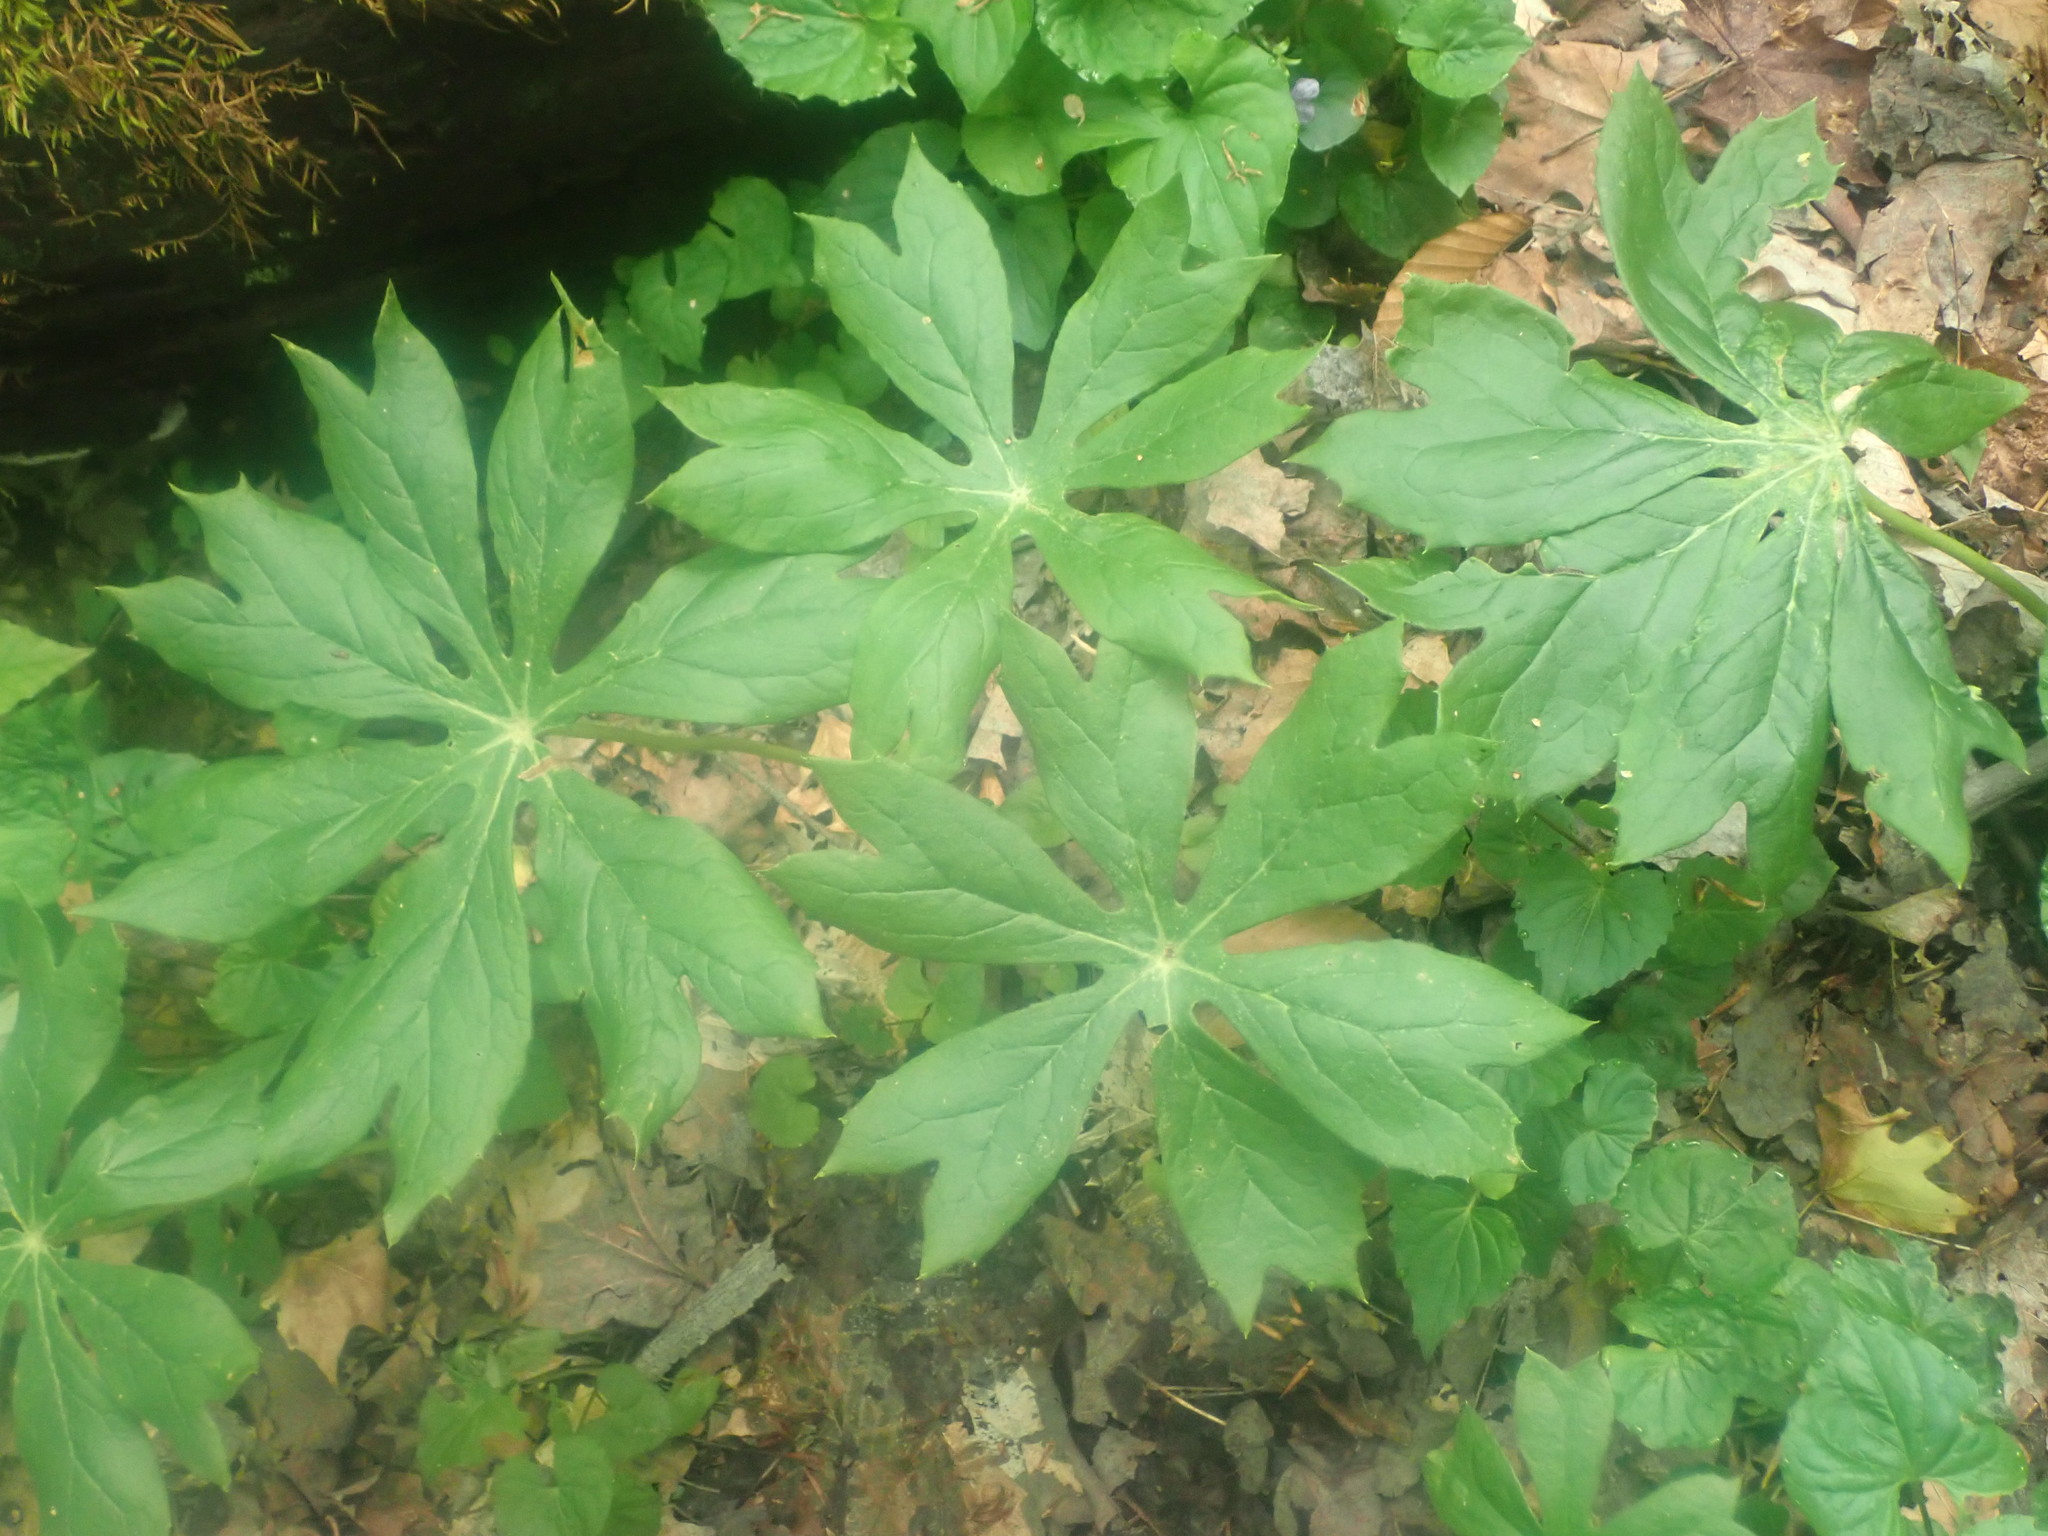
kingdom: Plantae
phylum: Tracheophyta
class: Magnoliopsida
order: Ranunculales
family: Berberidaceae
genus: Podophyllum
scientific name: Podophyllum peltatum
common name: Wild mandrake
